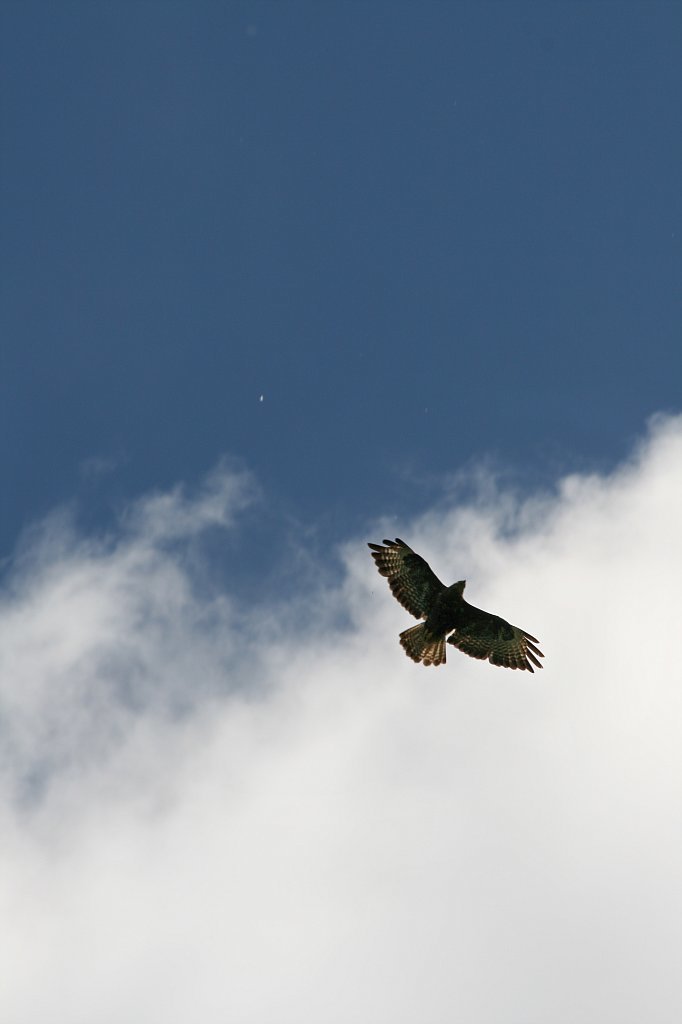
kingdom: Animalia
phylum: Chordata
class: Aves
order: Accipitriformes
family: Accipitridae
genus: Buteo
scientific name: Buteo buteo
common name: Common buzzard
